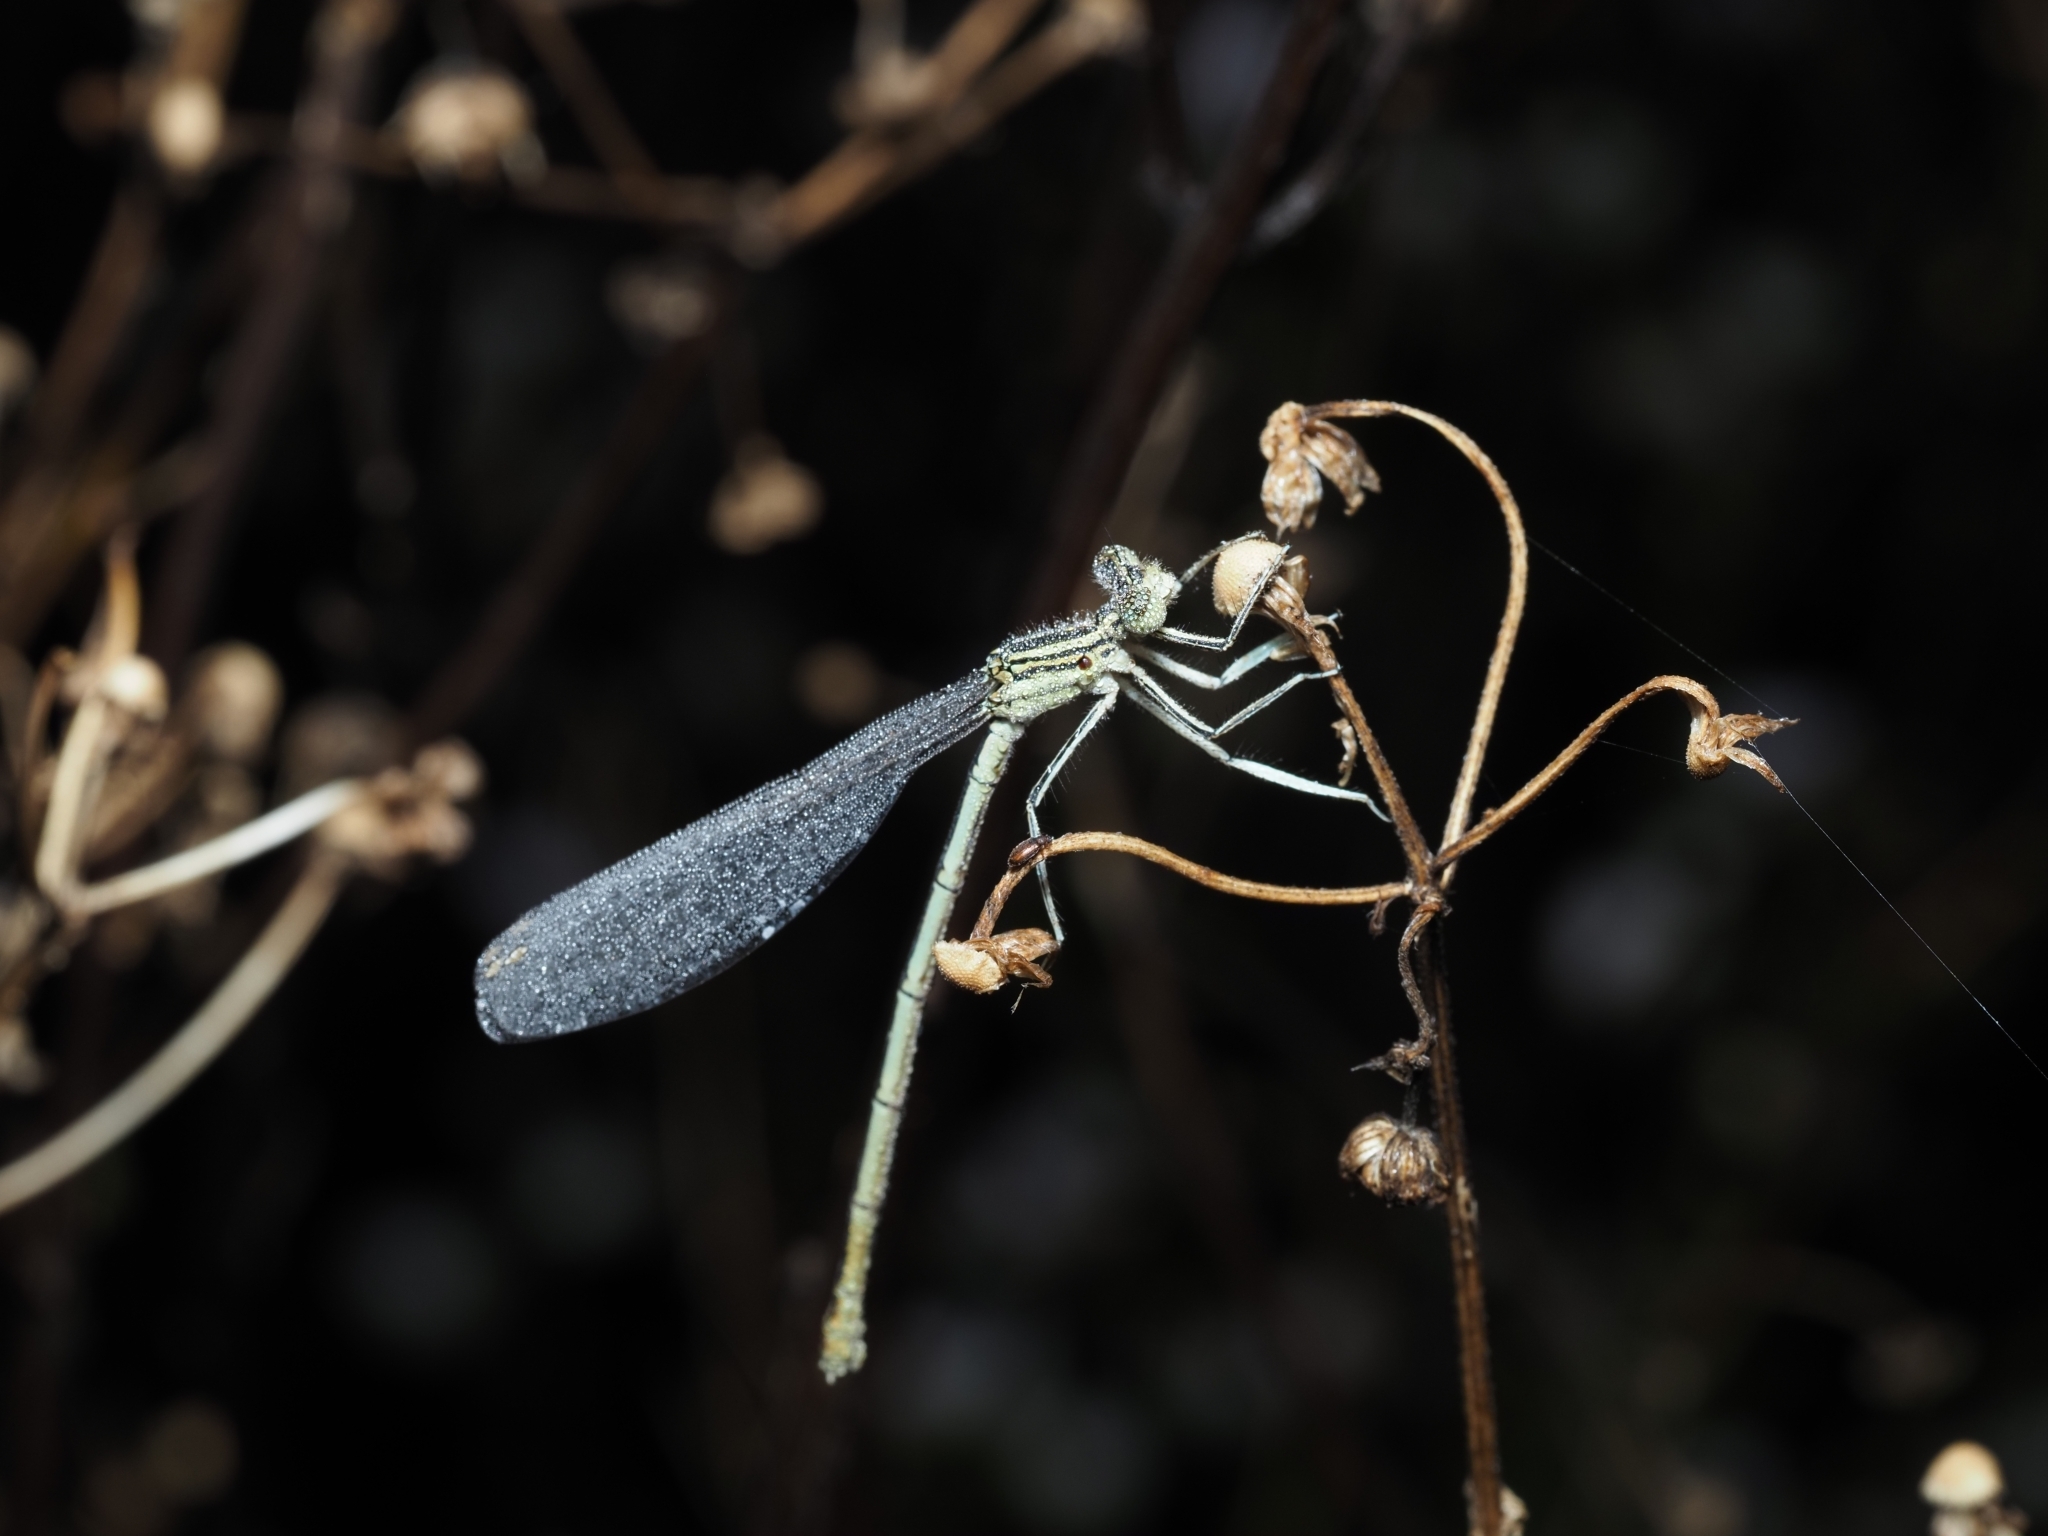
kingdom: Animalia
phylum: Arthropoda
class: Insecta
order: Odonata
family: Platycnemididae
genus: Platycnemis
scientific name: Platycnemis pennipes
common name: White-legged damselfly
